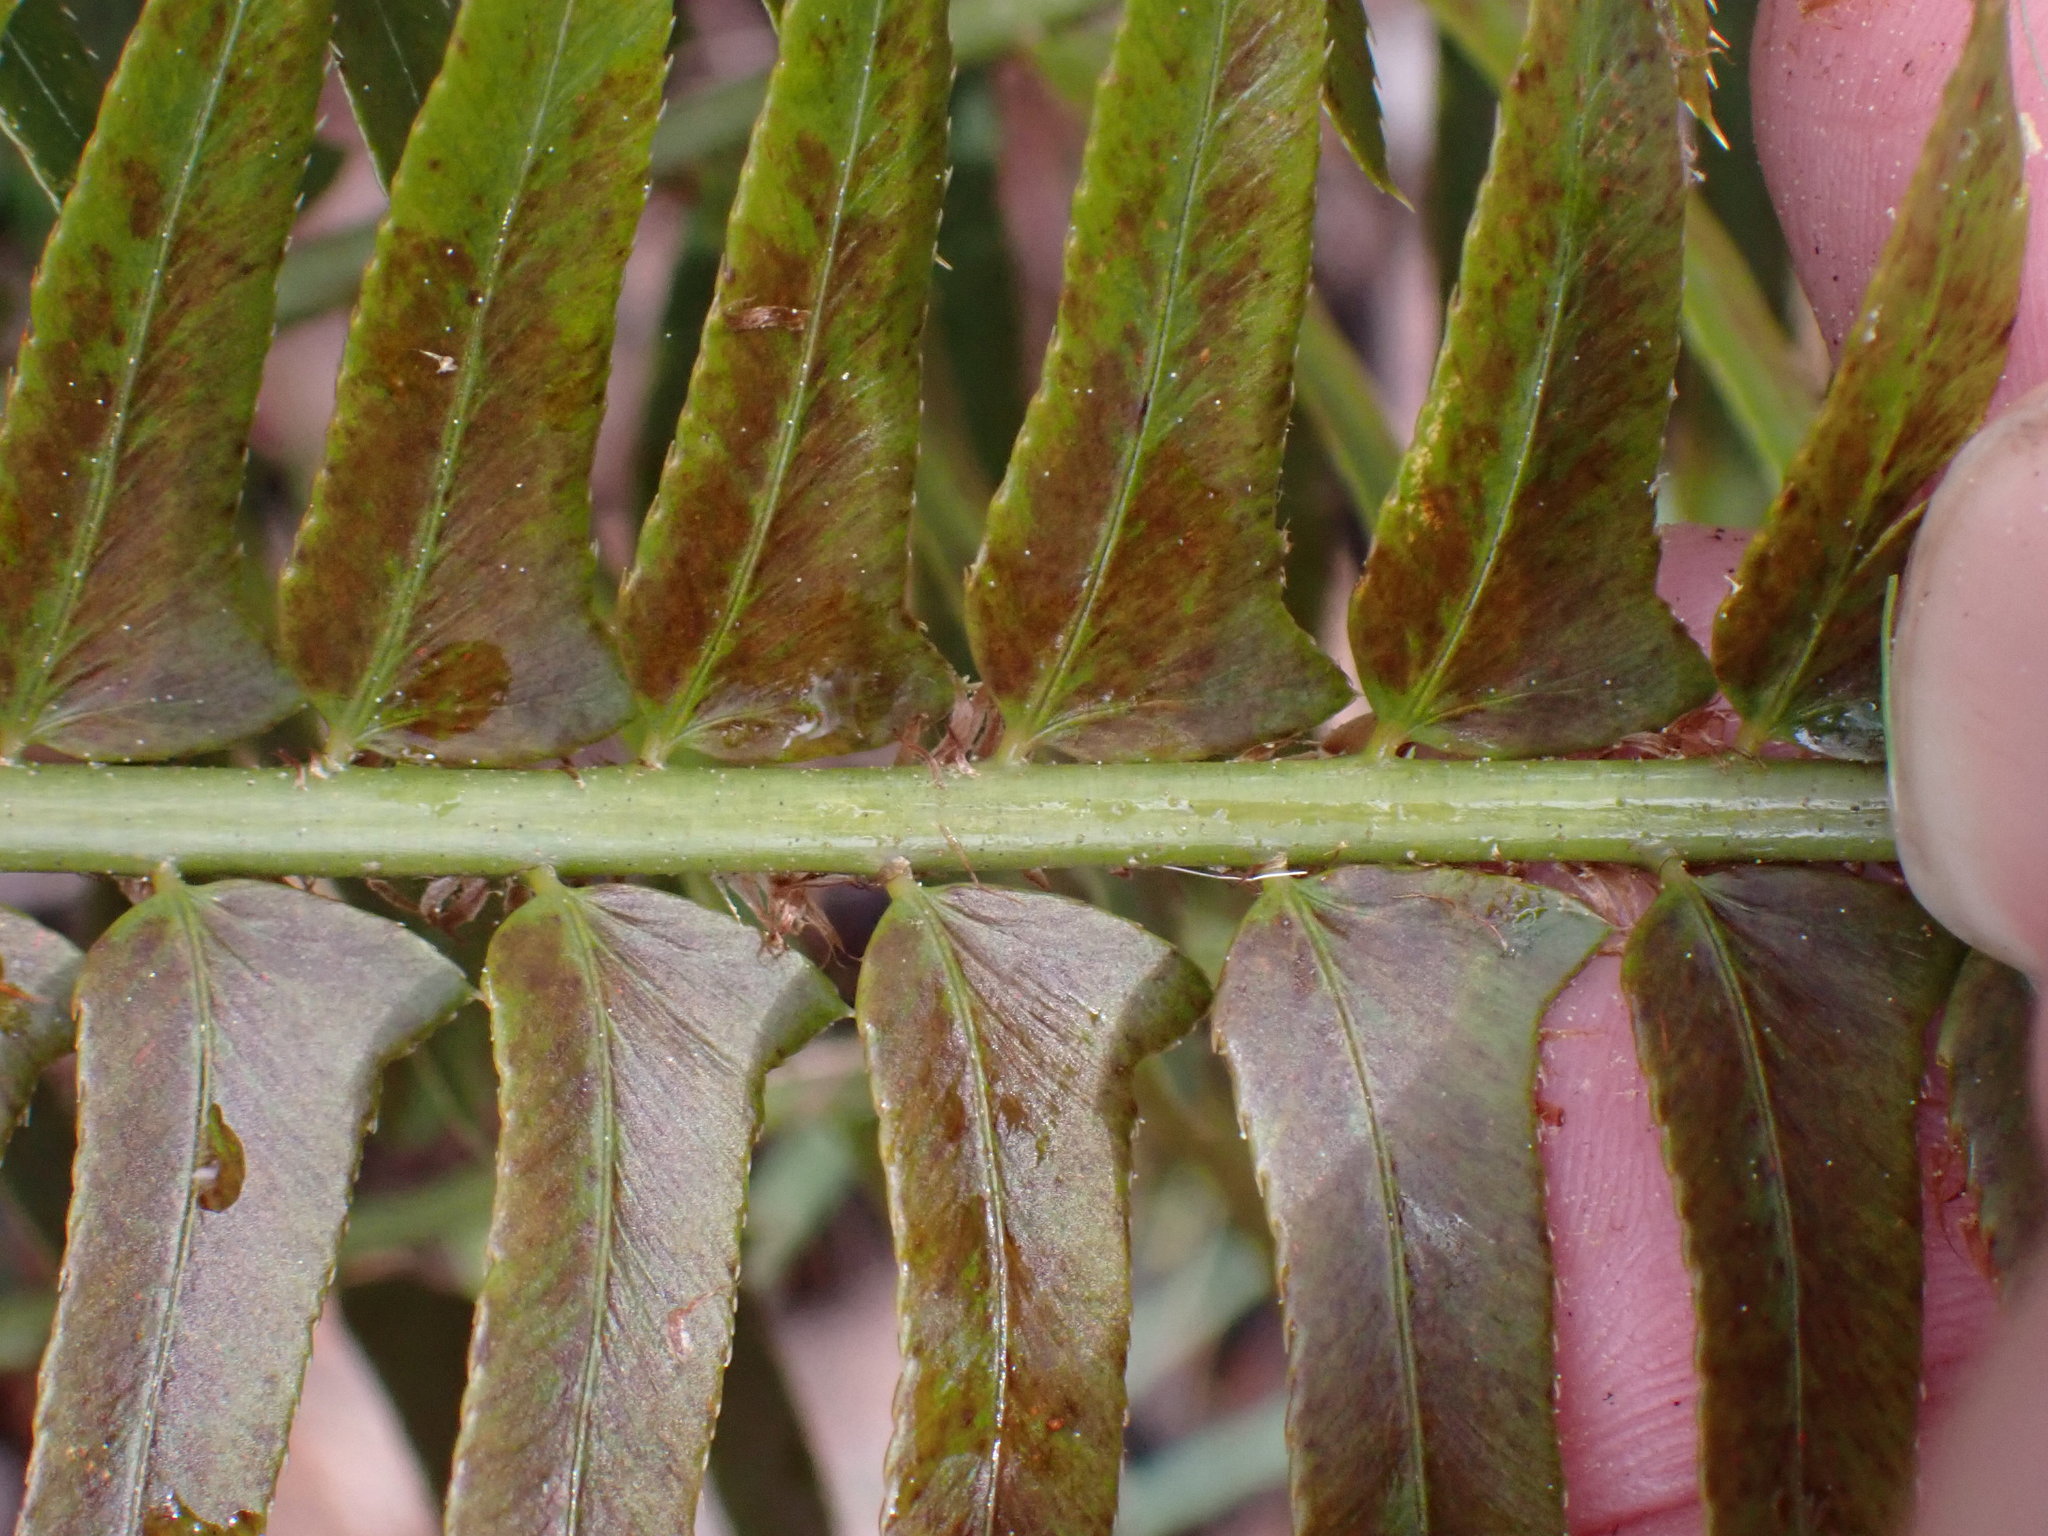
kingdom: Plantae
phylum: Tracheophyta
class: Polypodiopsida
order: Polypodiales
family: Dryopteridaceae
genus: Polystichum
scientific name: Polystichum munitum
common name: Western sword-fern
